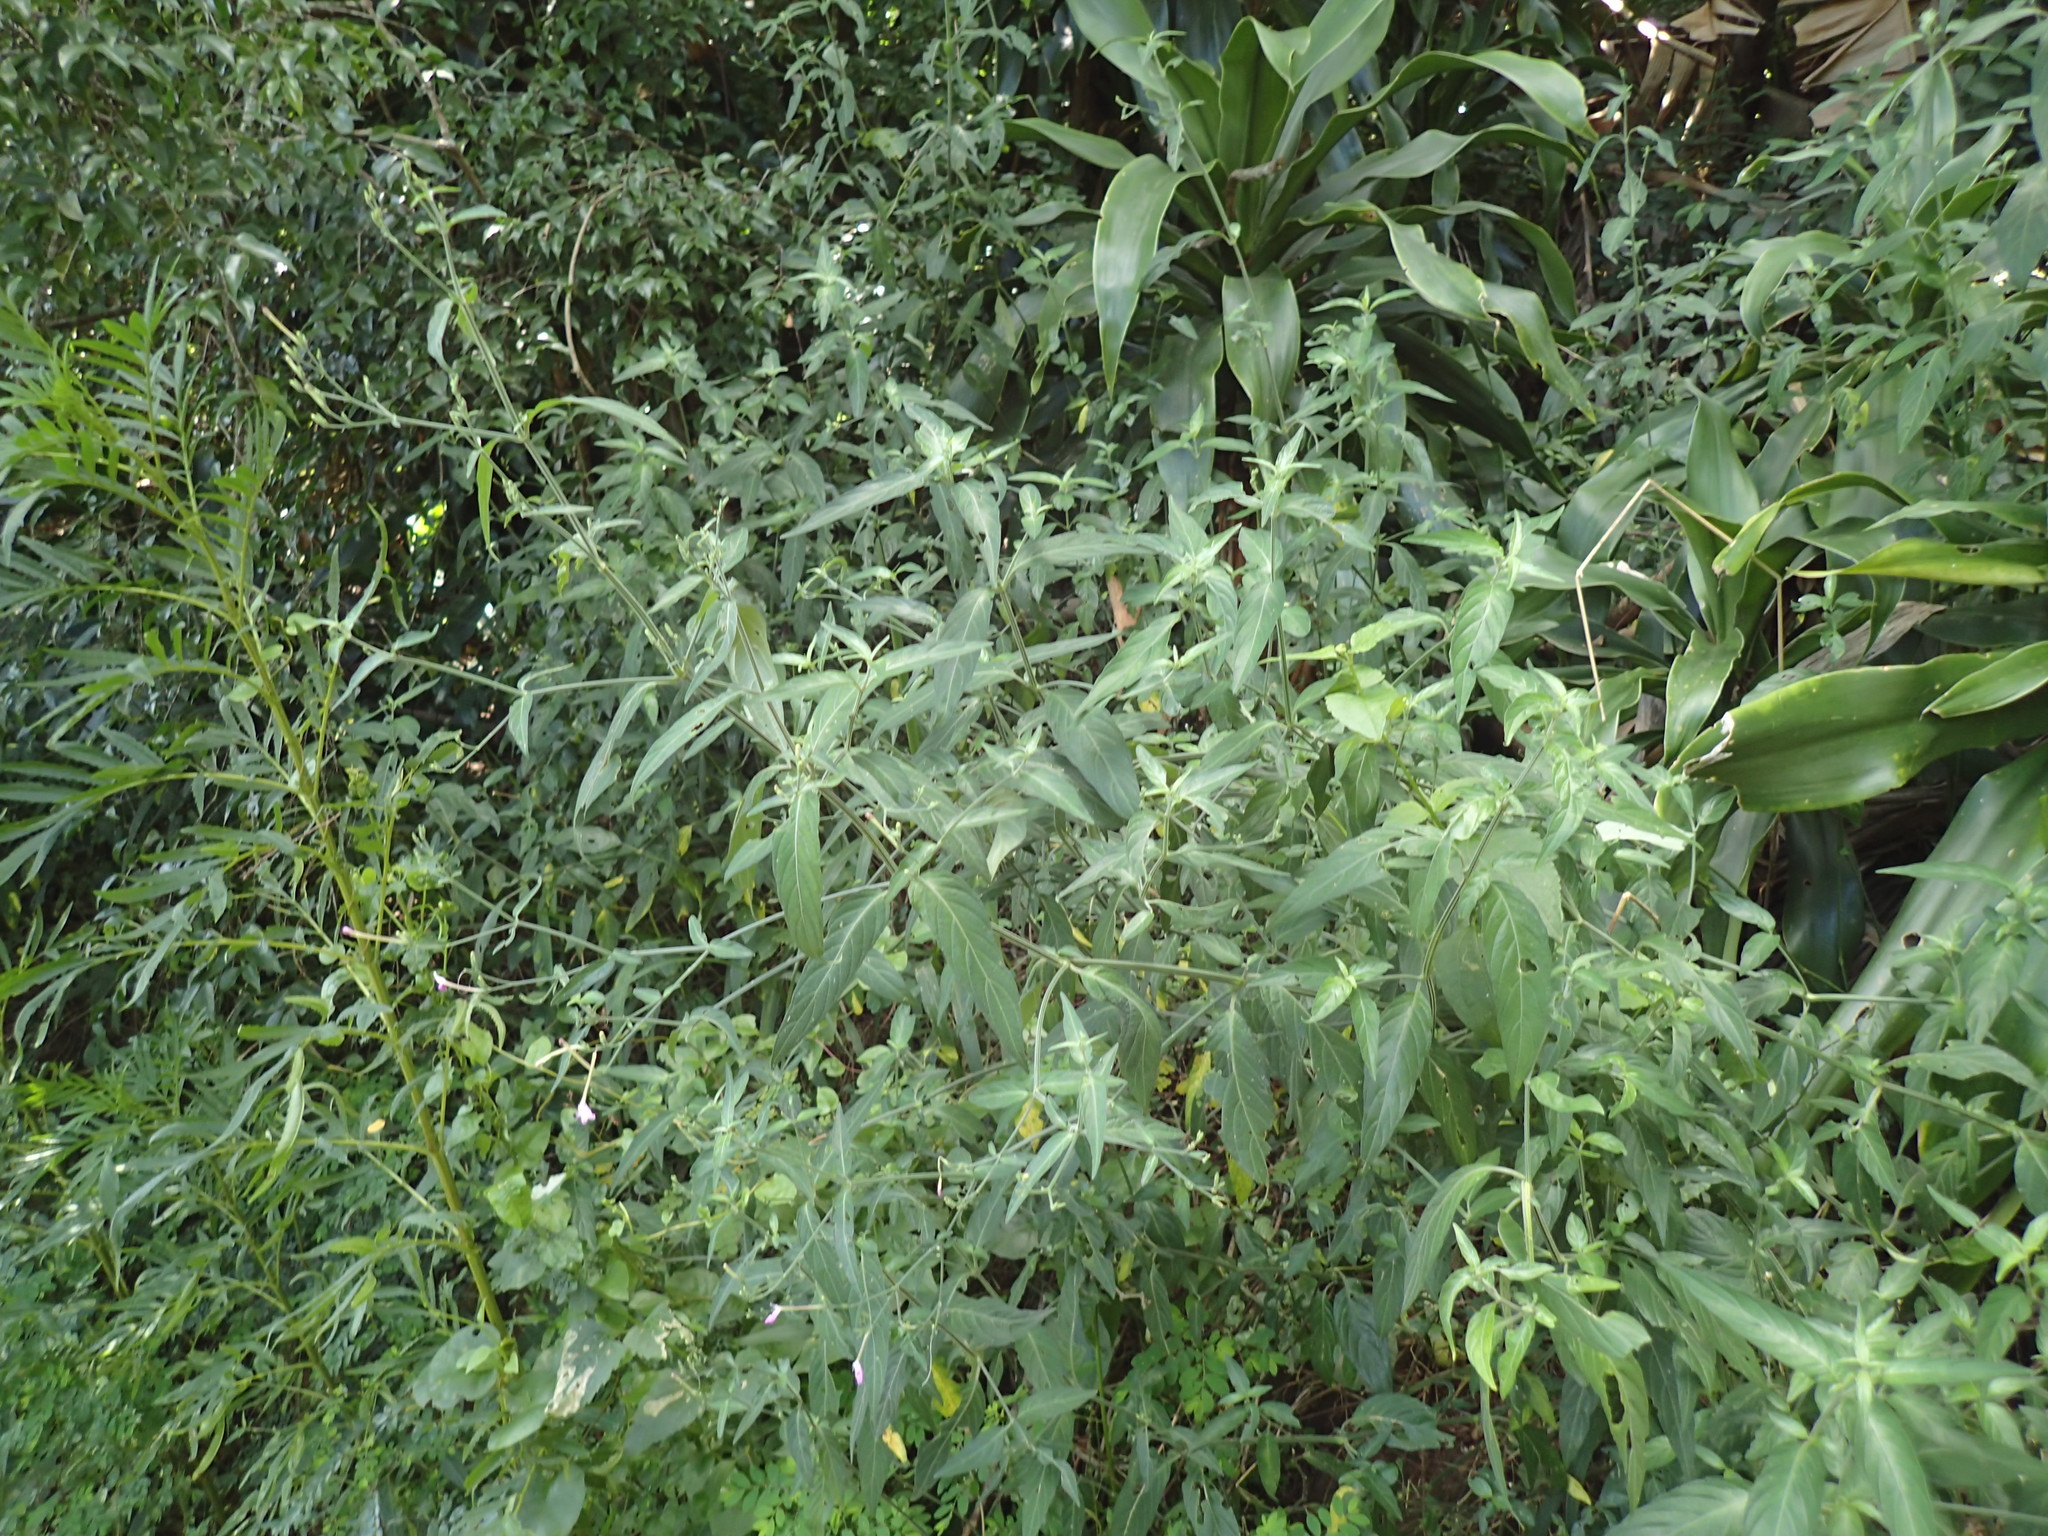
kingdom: Plantae
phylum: Tracheophyta
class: Magnoliopsida
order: Lamiales
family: Acanthaceae
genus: Rhinacanthus
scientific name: Rhinacanthus latilabiatus
